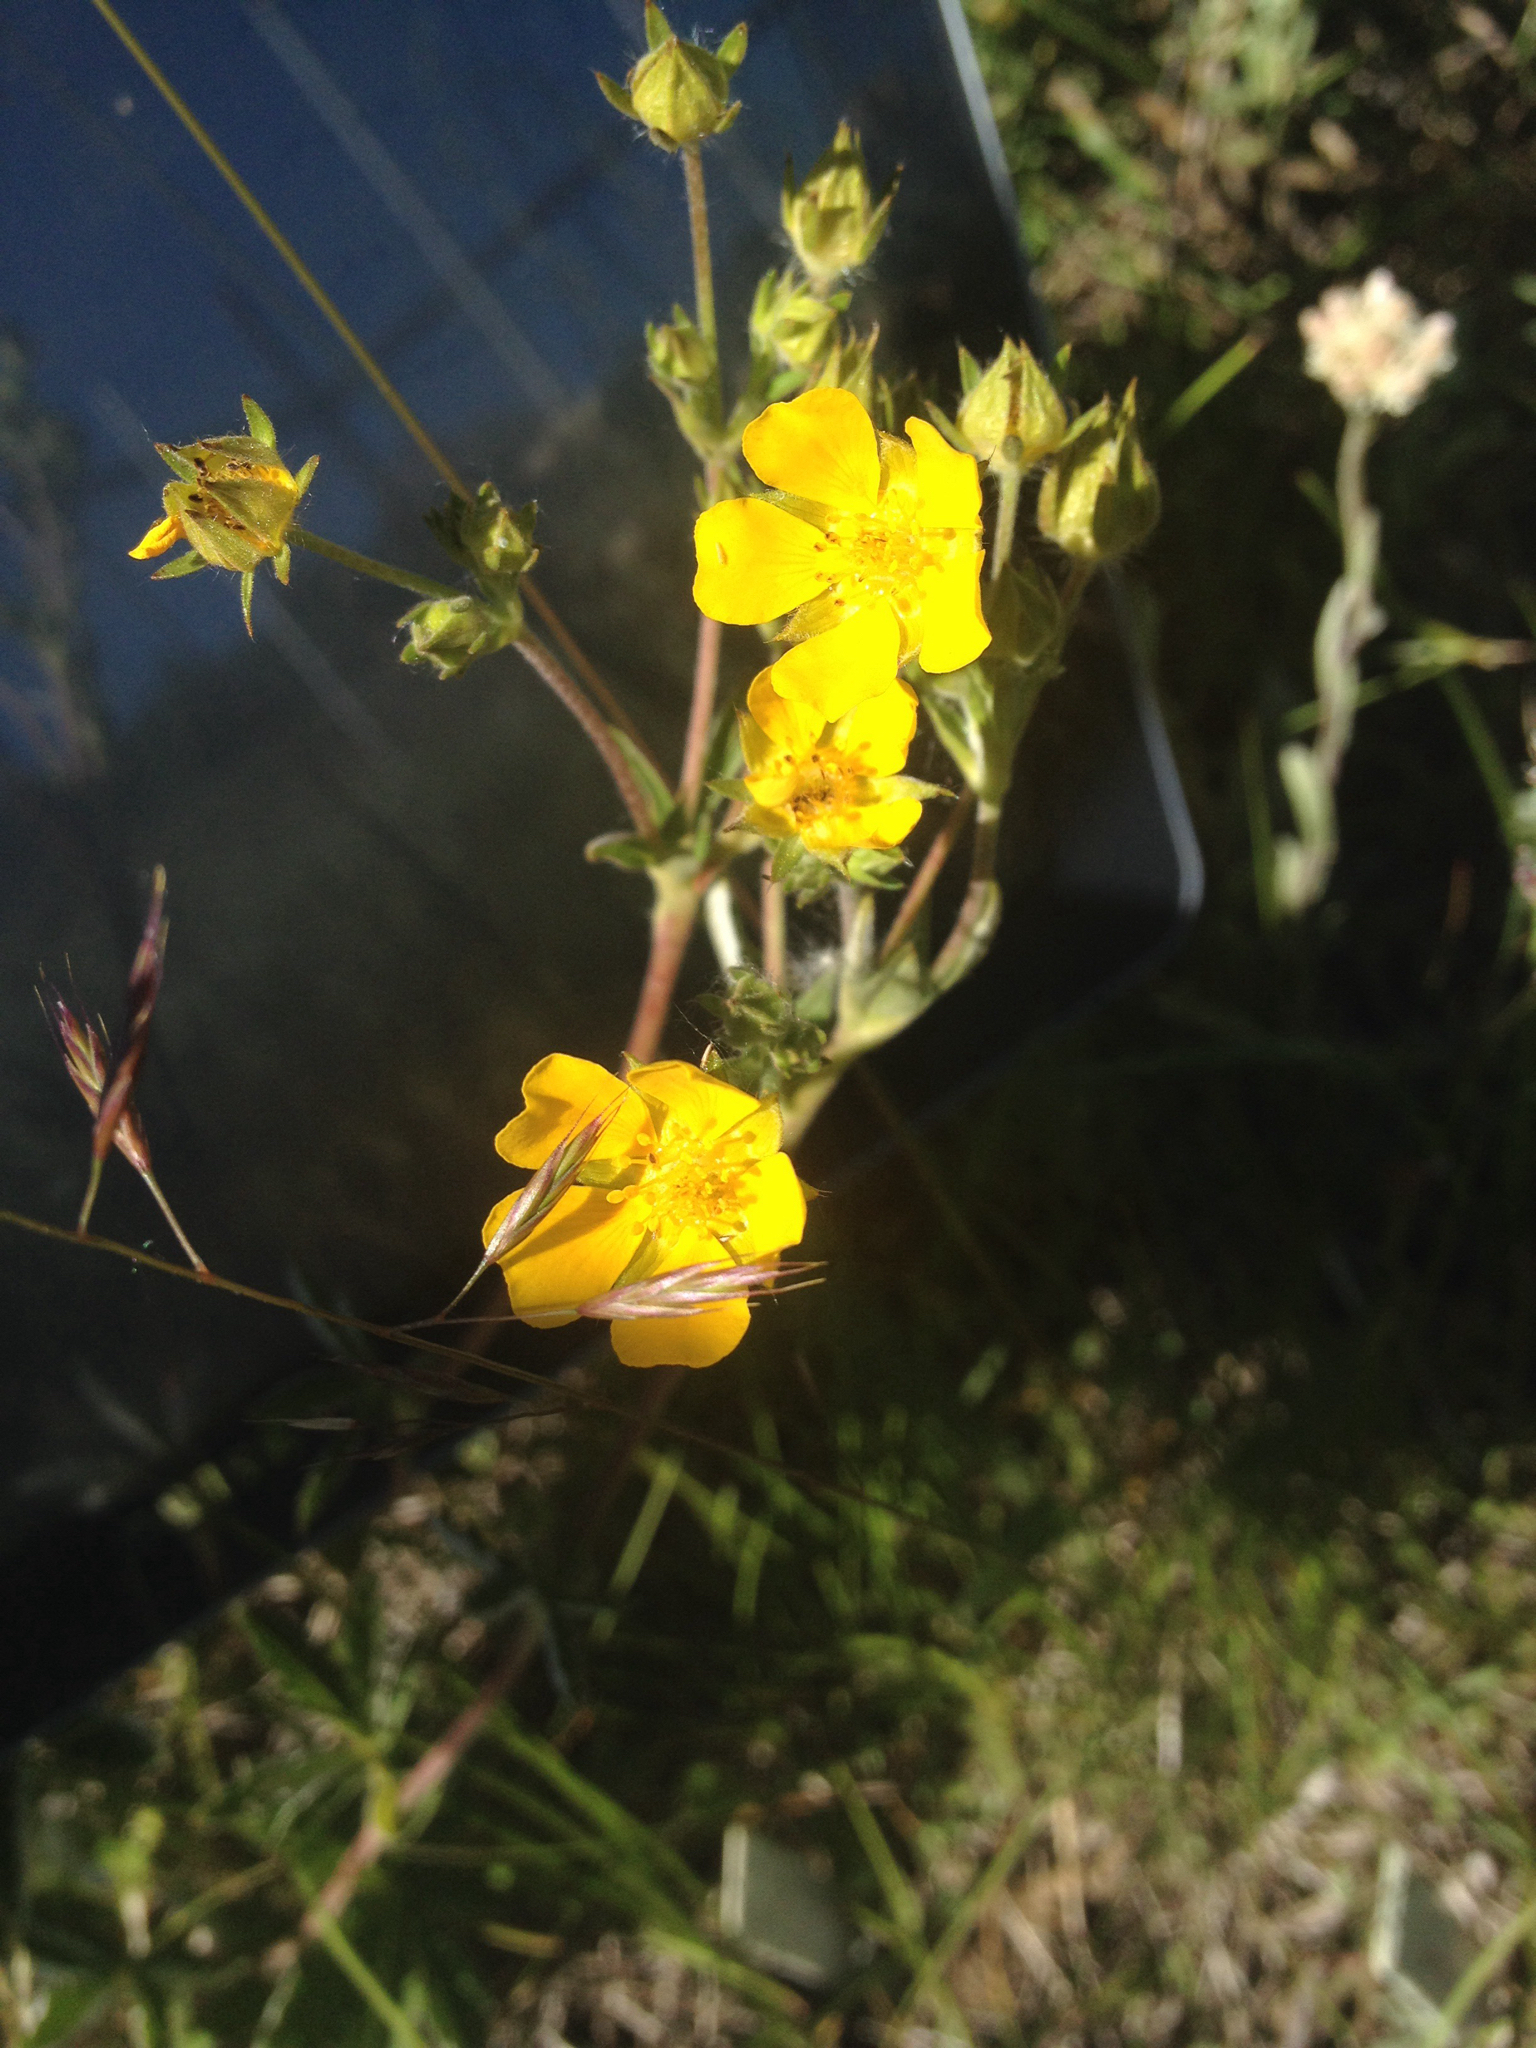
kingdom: Plantae
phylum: Tracheophyta
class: Magnoliopsida
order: Rosales
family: Rosaceae
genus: Potentilla
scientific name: Potentilla pulcherrima
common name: Beautiful cinquefoil
